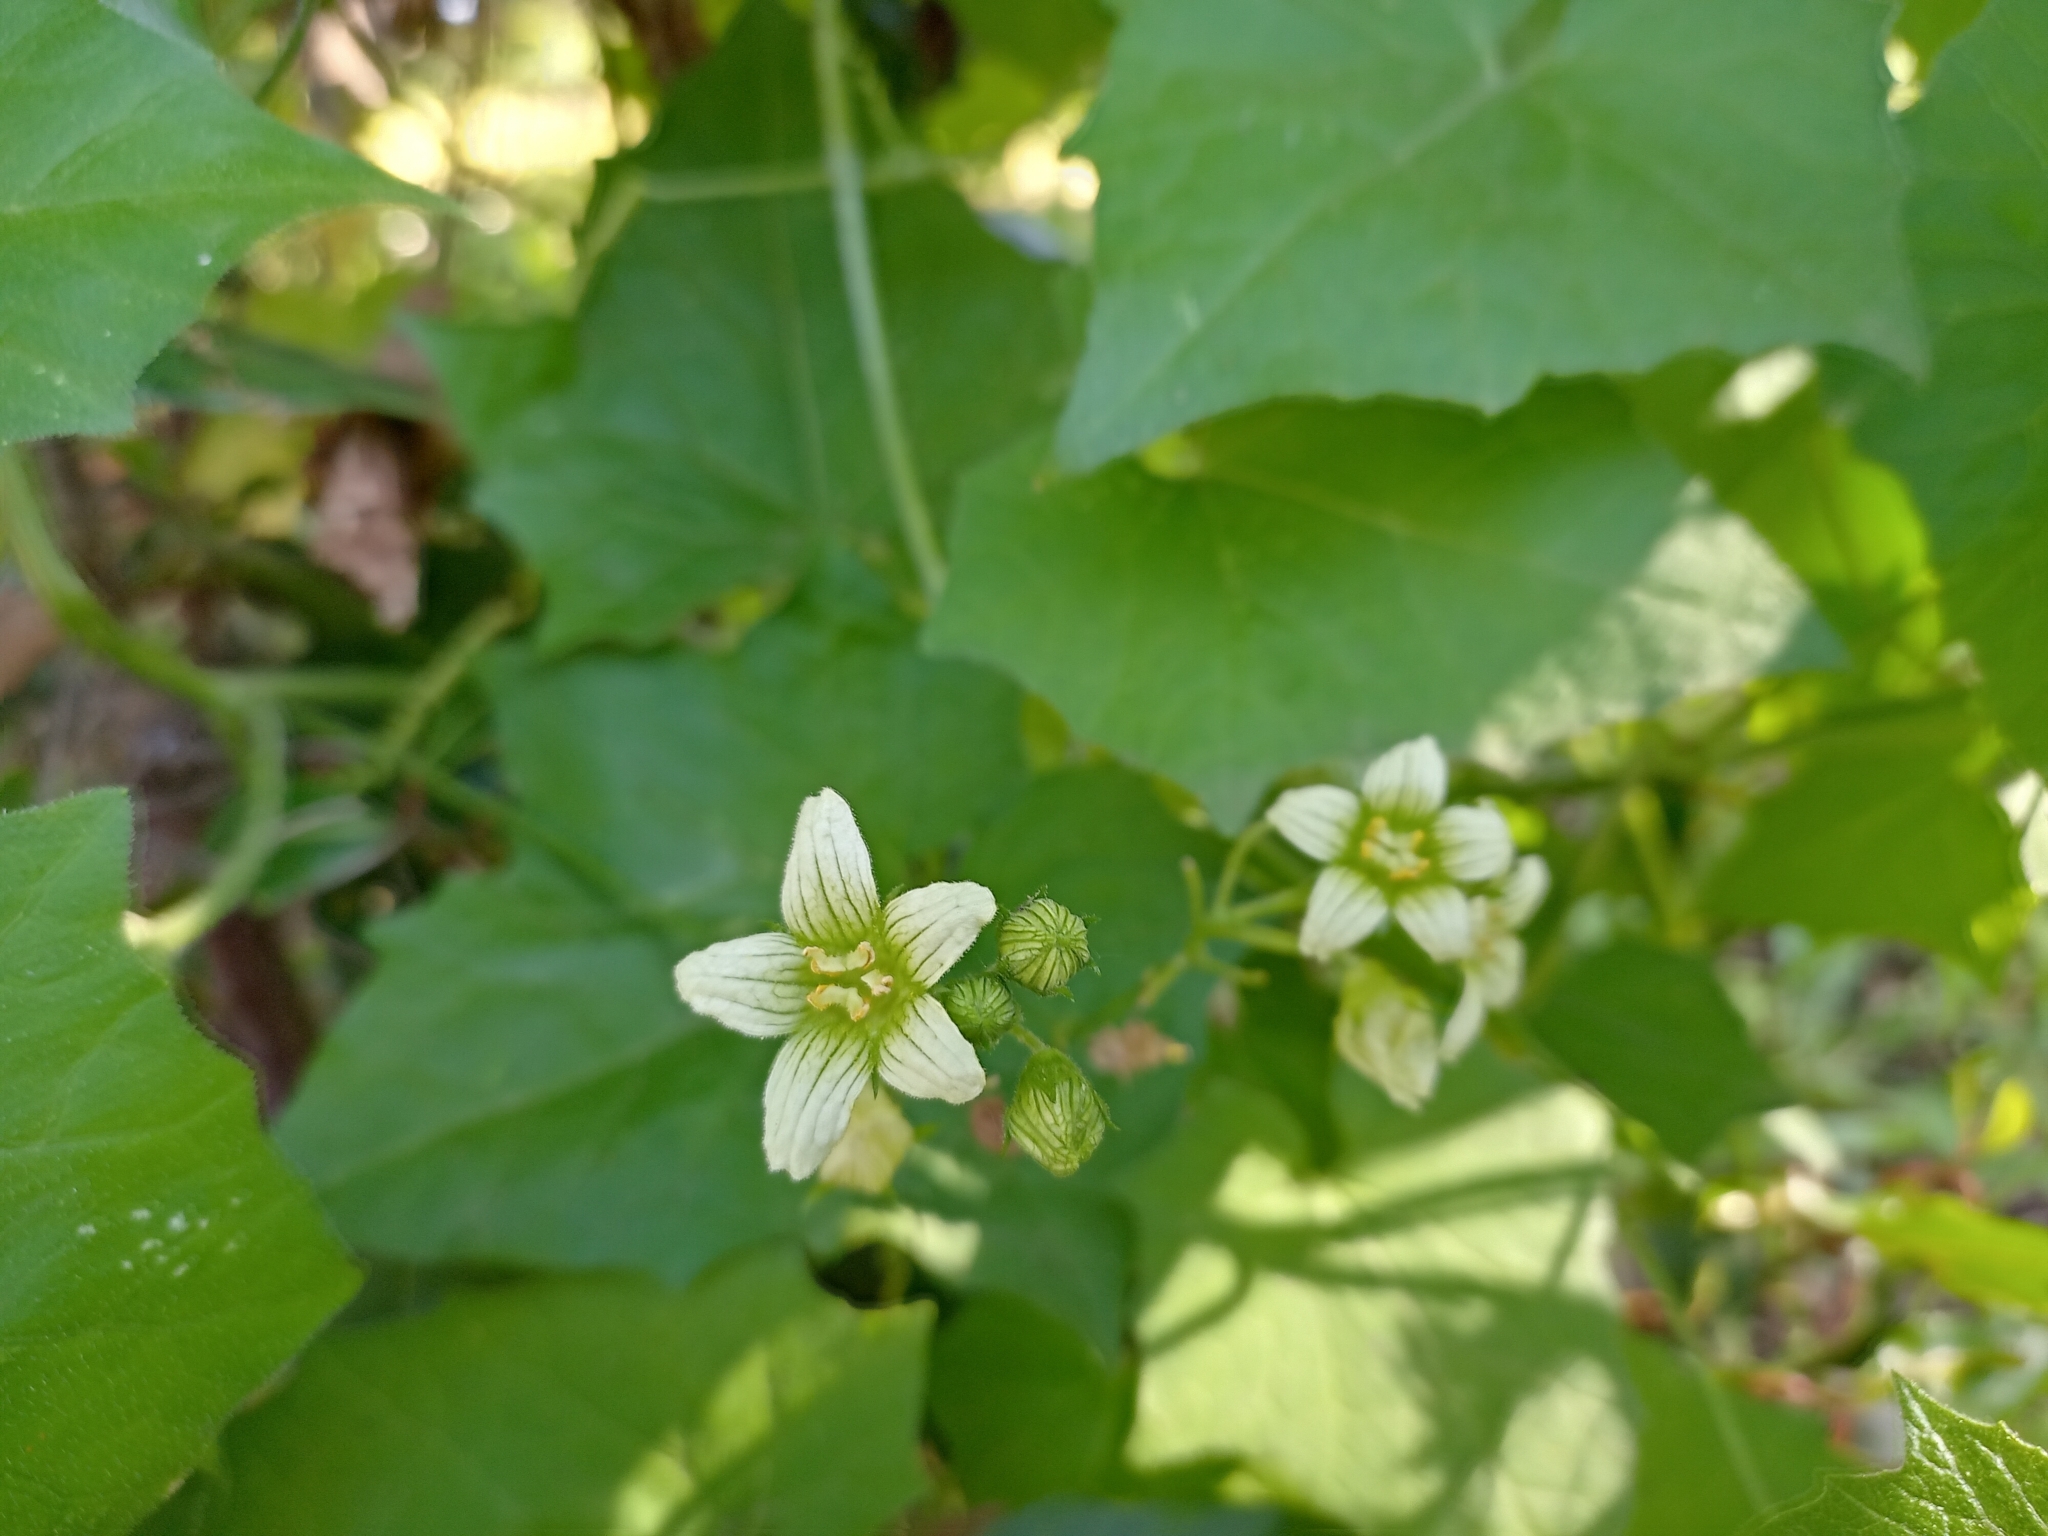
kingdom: Plantae
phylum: Tracheophyta
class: Magnoliopsida
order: Cucurbitales
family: Cucurbitaceae
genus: Bryonia
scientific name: Bryonia cretica
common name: Cretan bryony
